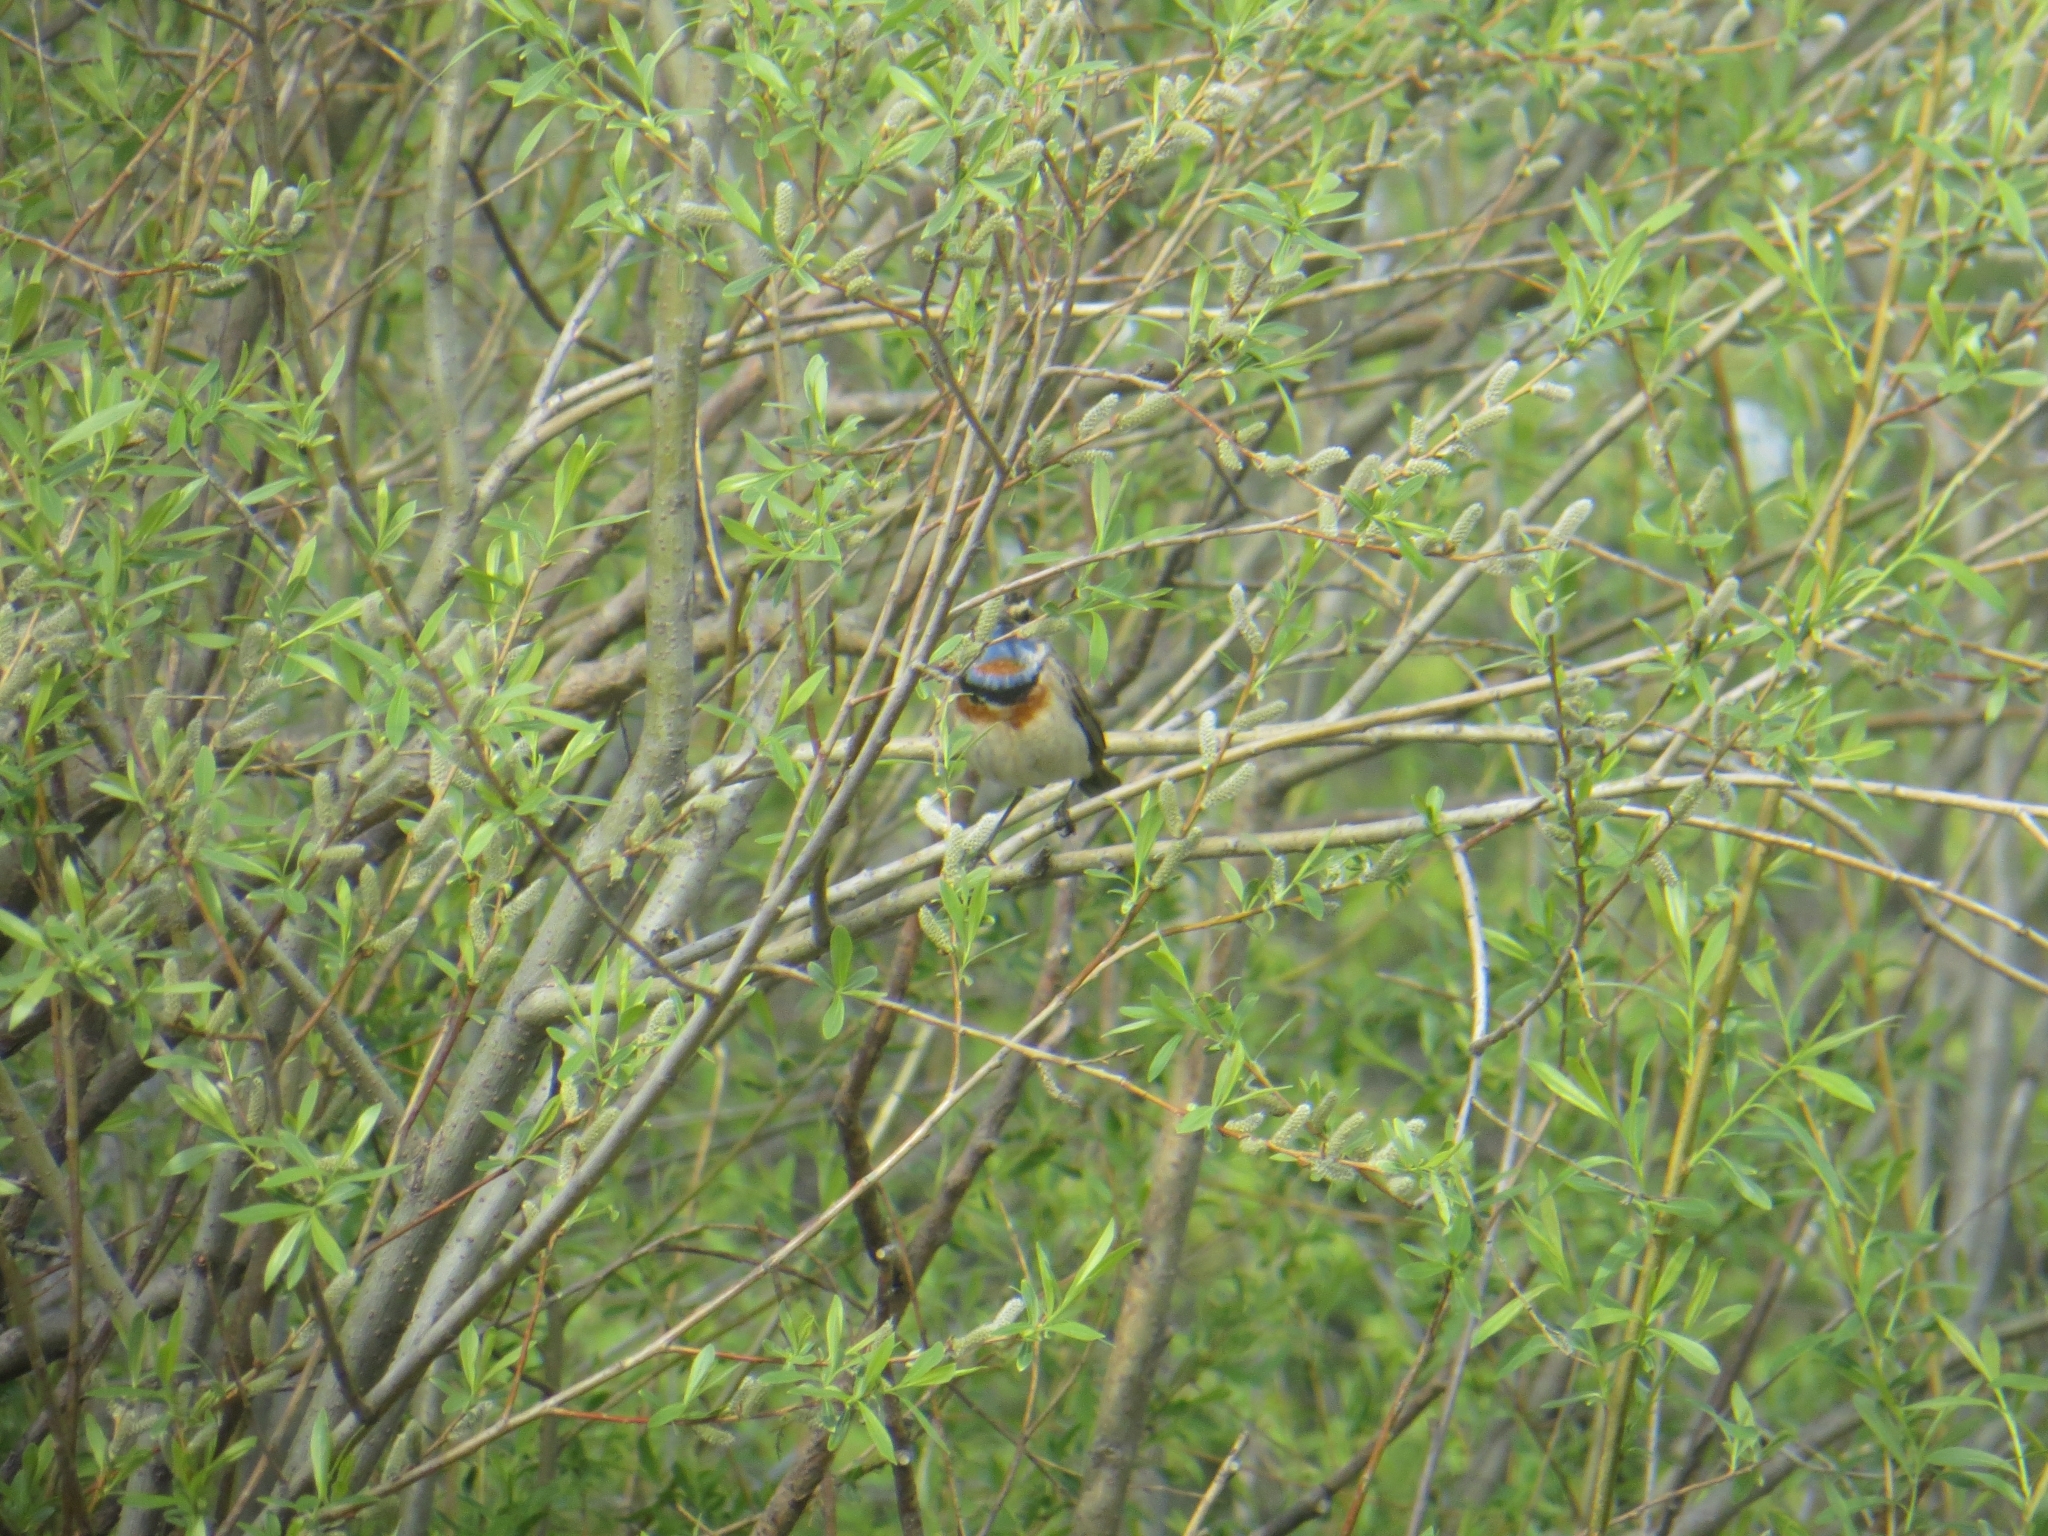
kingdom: Animalia
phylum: Chordata
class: Aves
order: Passeriformes
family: Muscicapidae
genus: Luscinia
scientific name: Luscinia svecica
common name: Bluethroat
